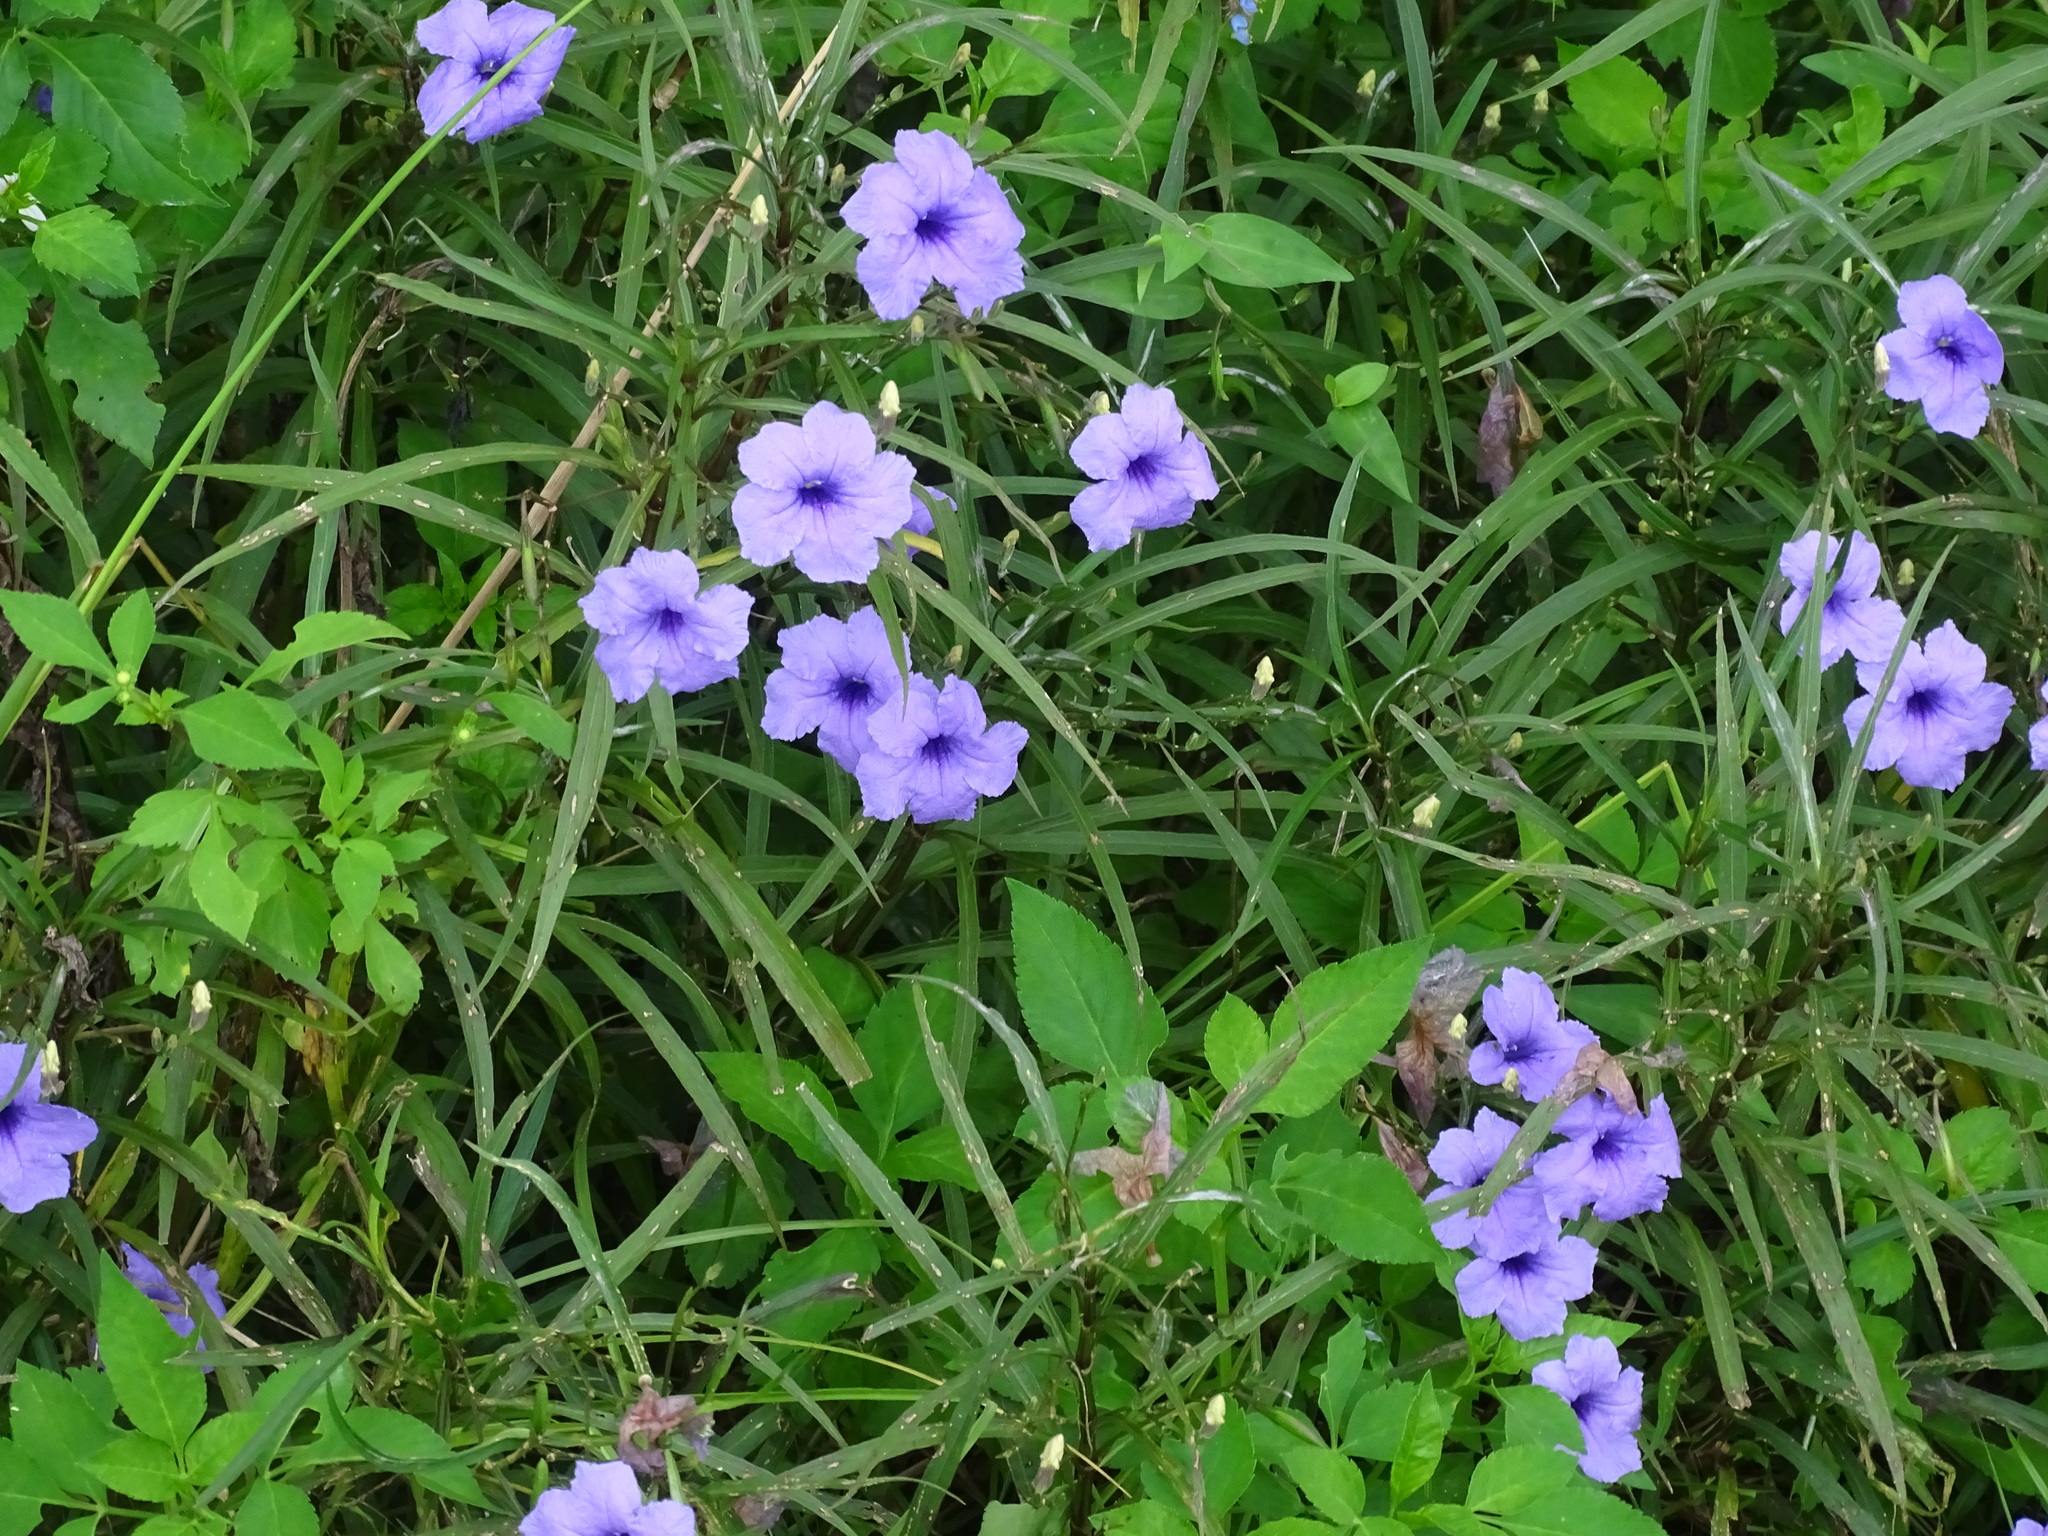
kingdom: Plantae
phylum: Tracheophyta
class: Magnoliopsida
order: Lamiales
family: Acanthaceae
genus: Ruellia
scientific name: Ruellia simplex
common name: Softseed wild petunia
